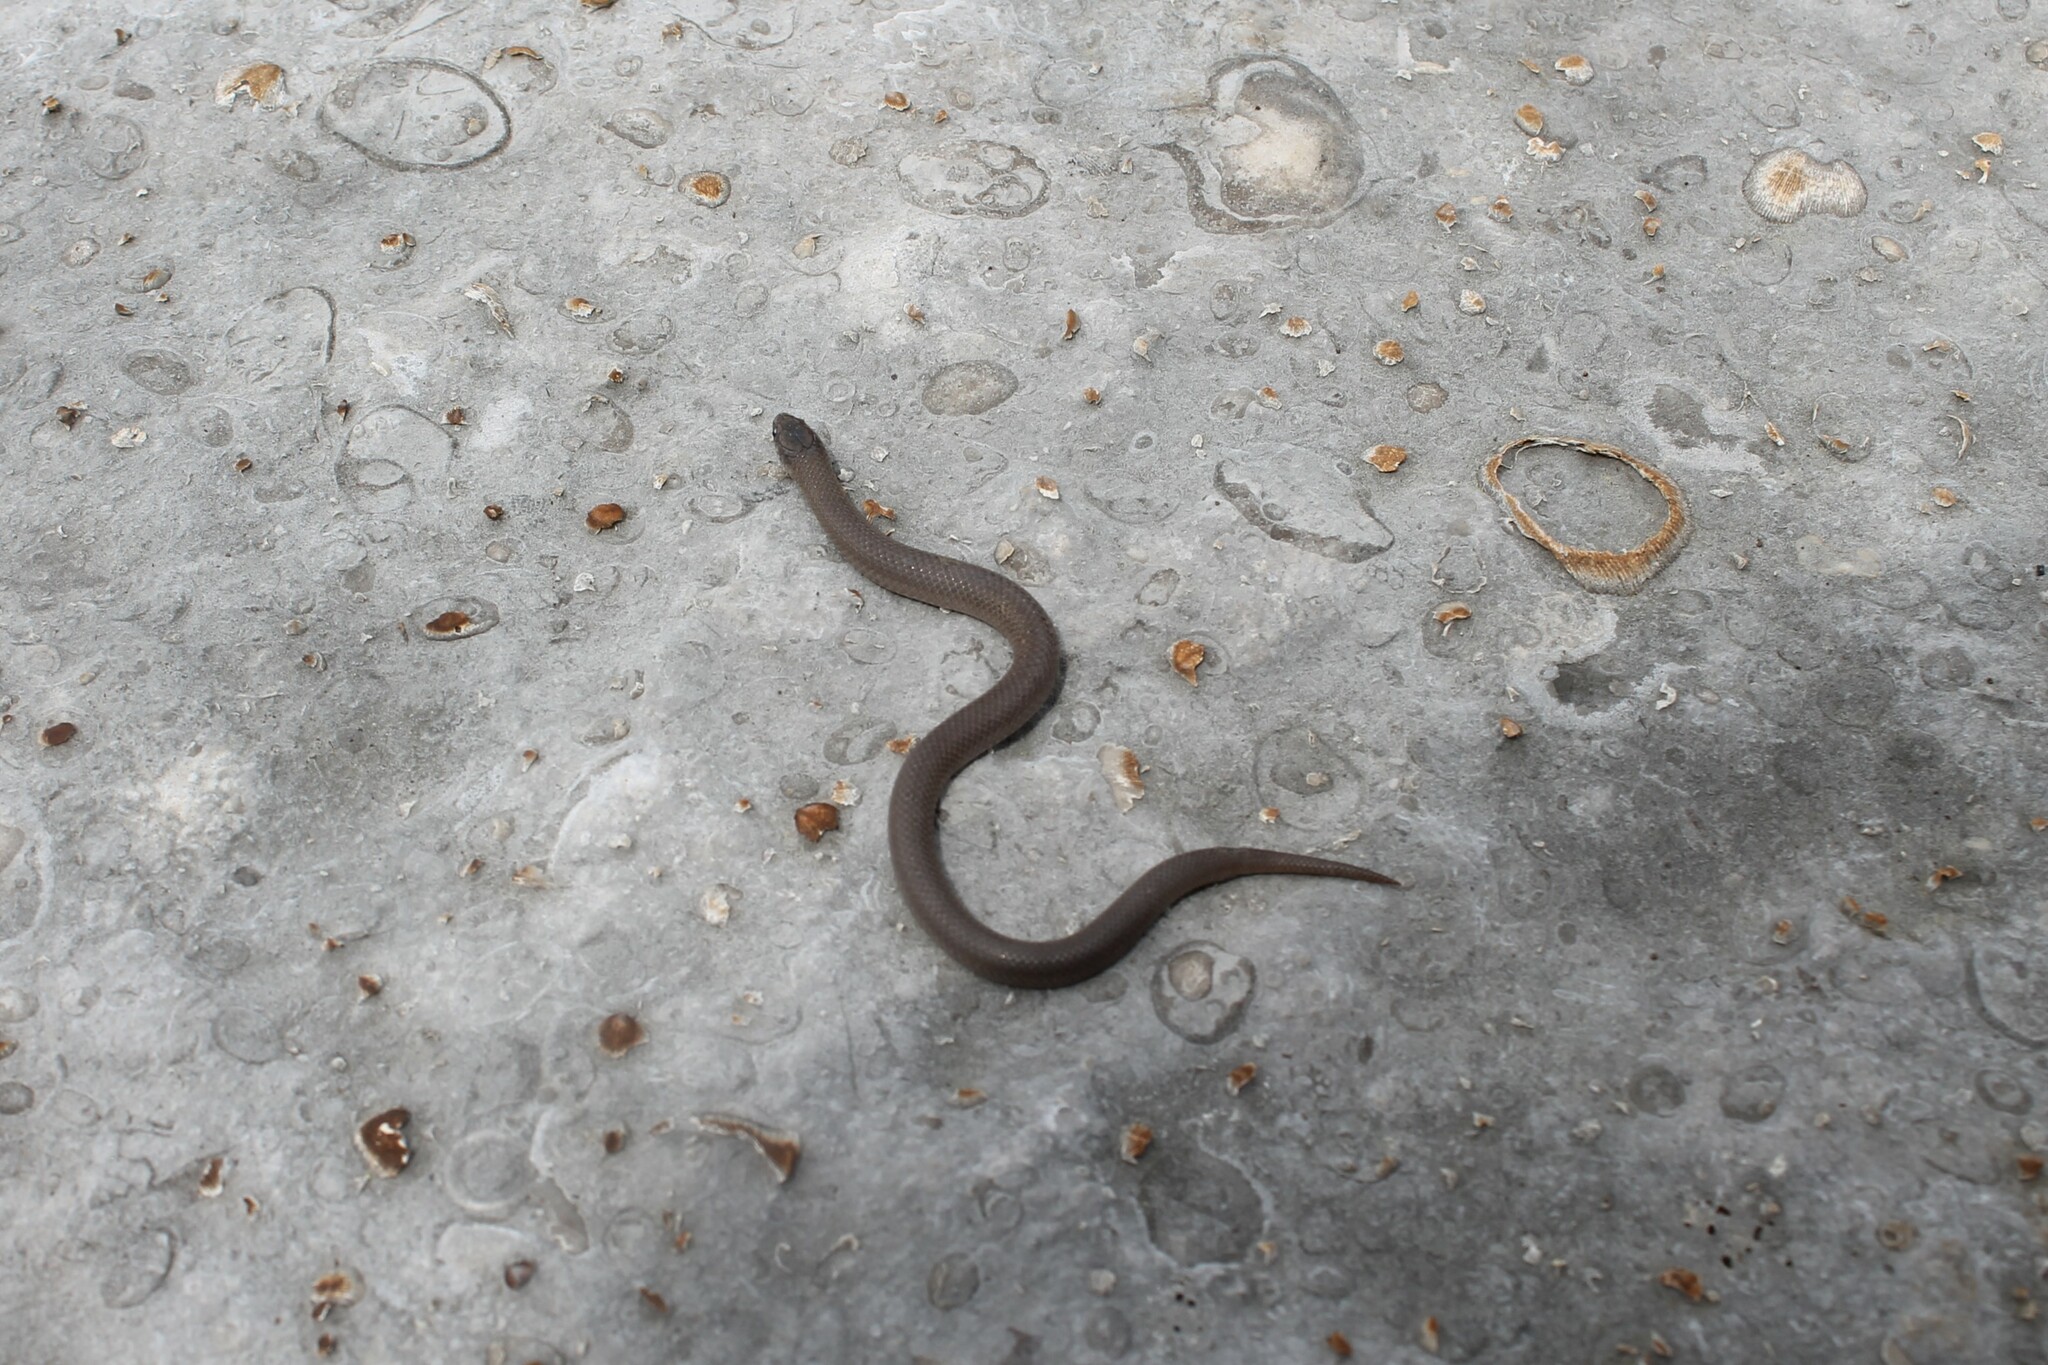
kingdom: Animalia
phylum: Chordata
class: Squamata
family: Colubridae
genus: Virginia
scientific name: Virginia valeriae
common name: Smooth earth snake
